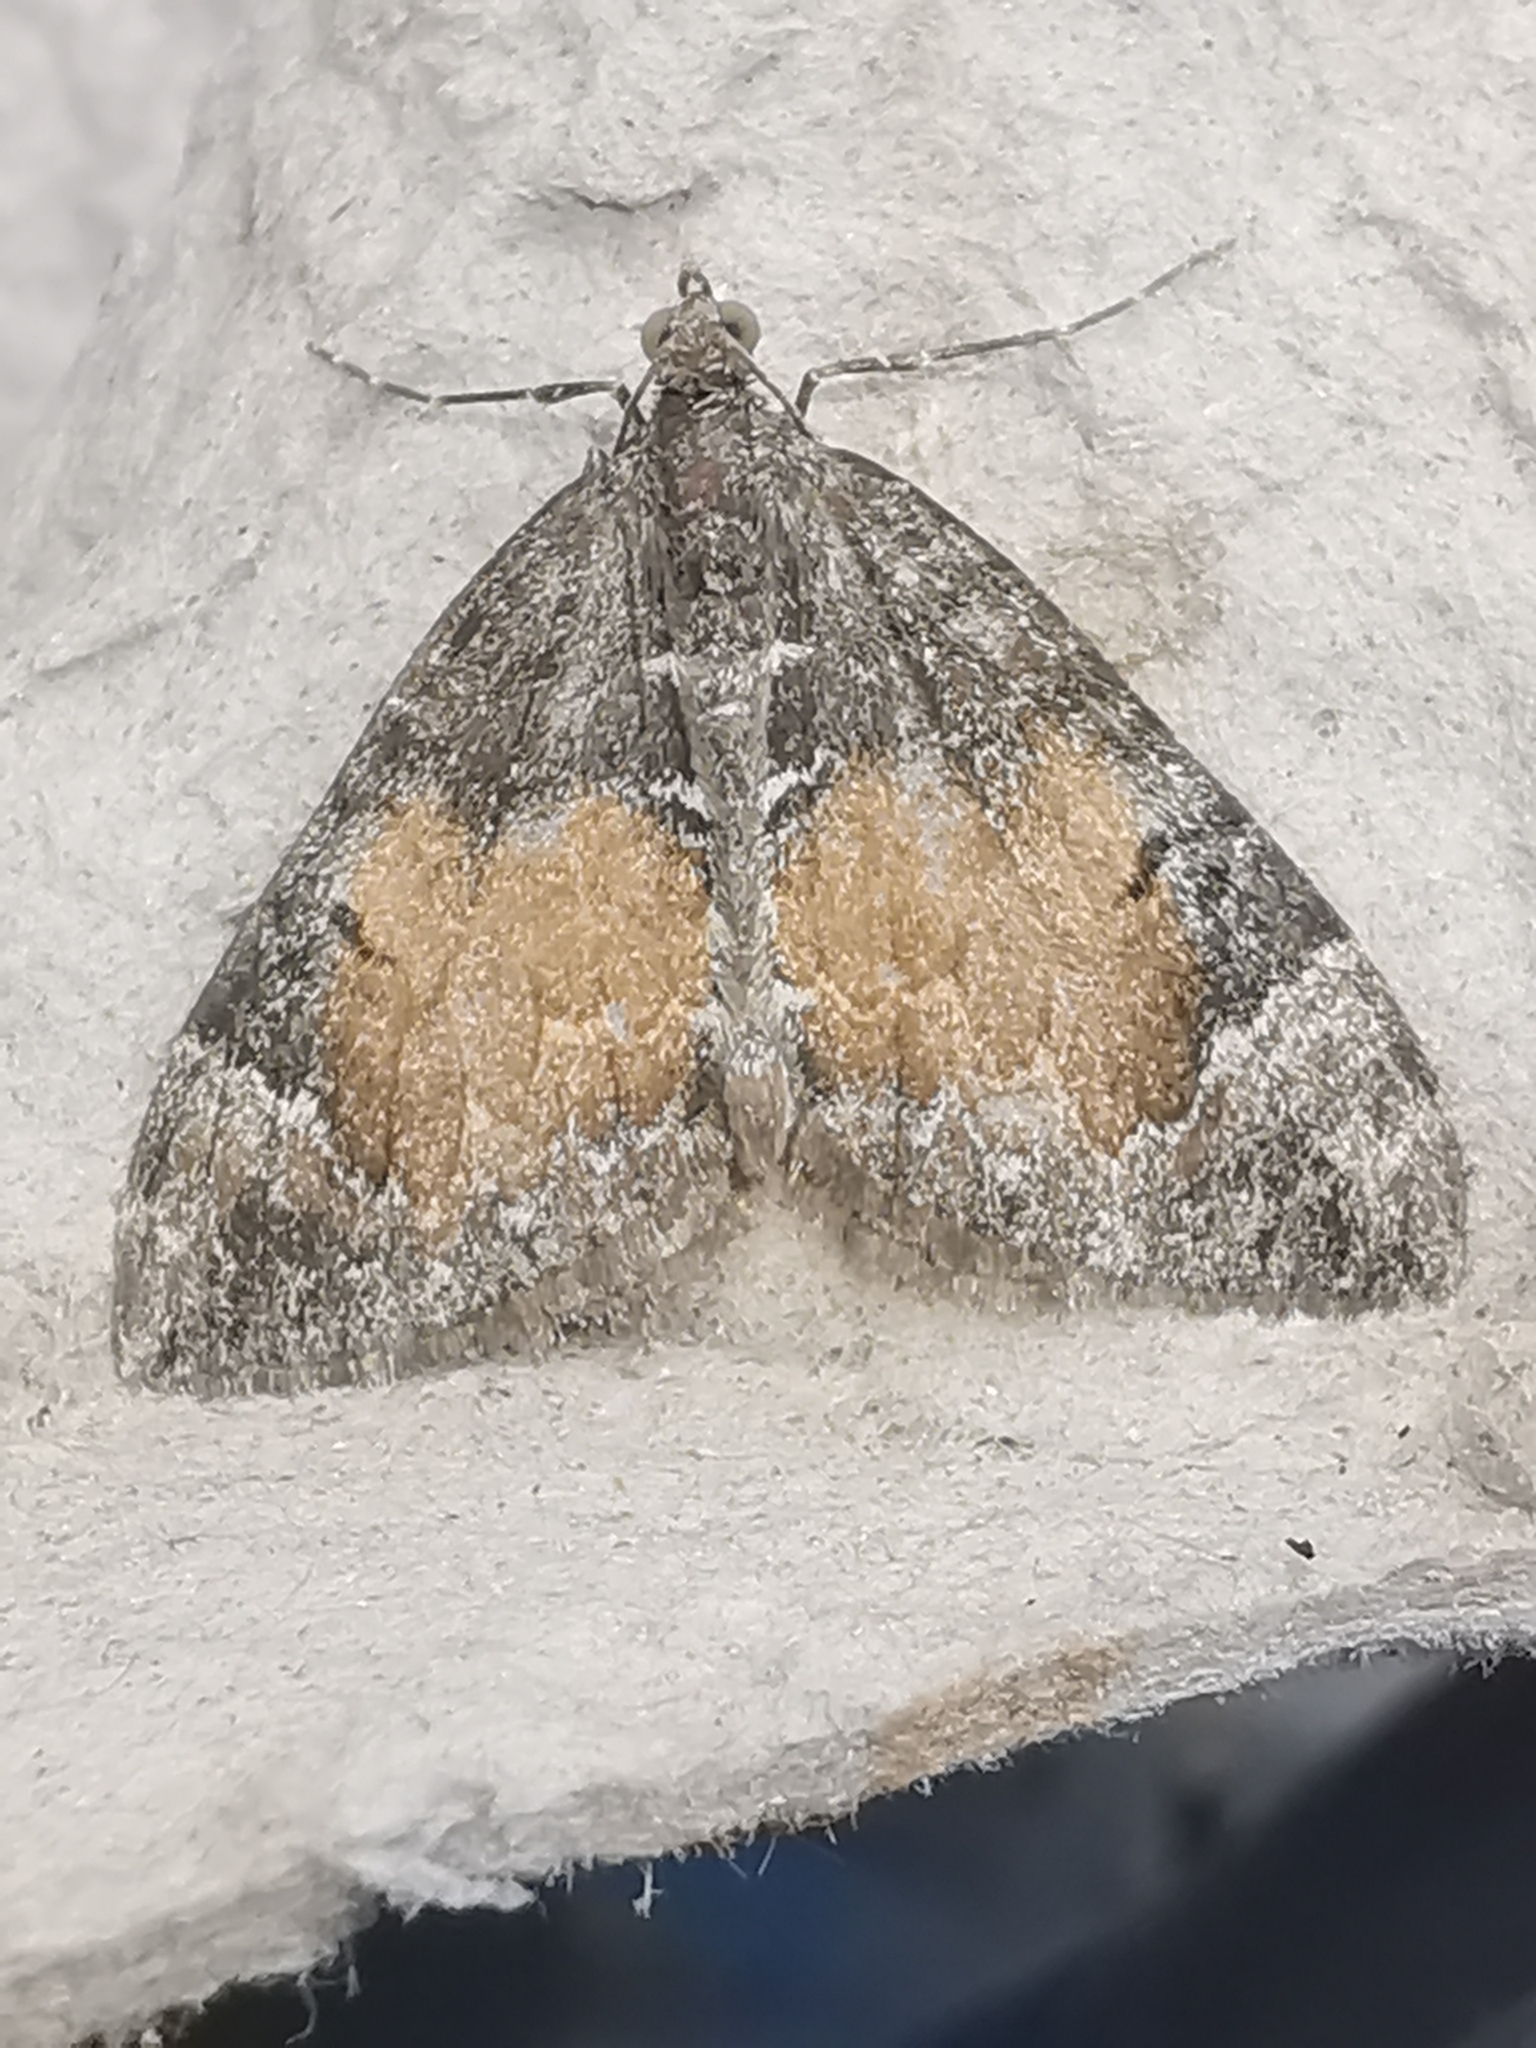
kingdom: Animalia
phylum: Arthropoda
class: Insecta
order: Lepidoptera
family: Geometridae
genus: Dysstroma
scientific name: Dysstroma truncata
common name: Common marbled carpet
